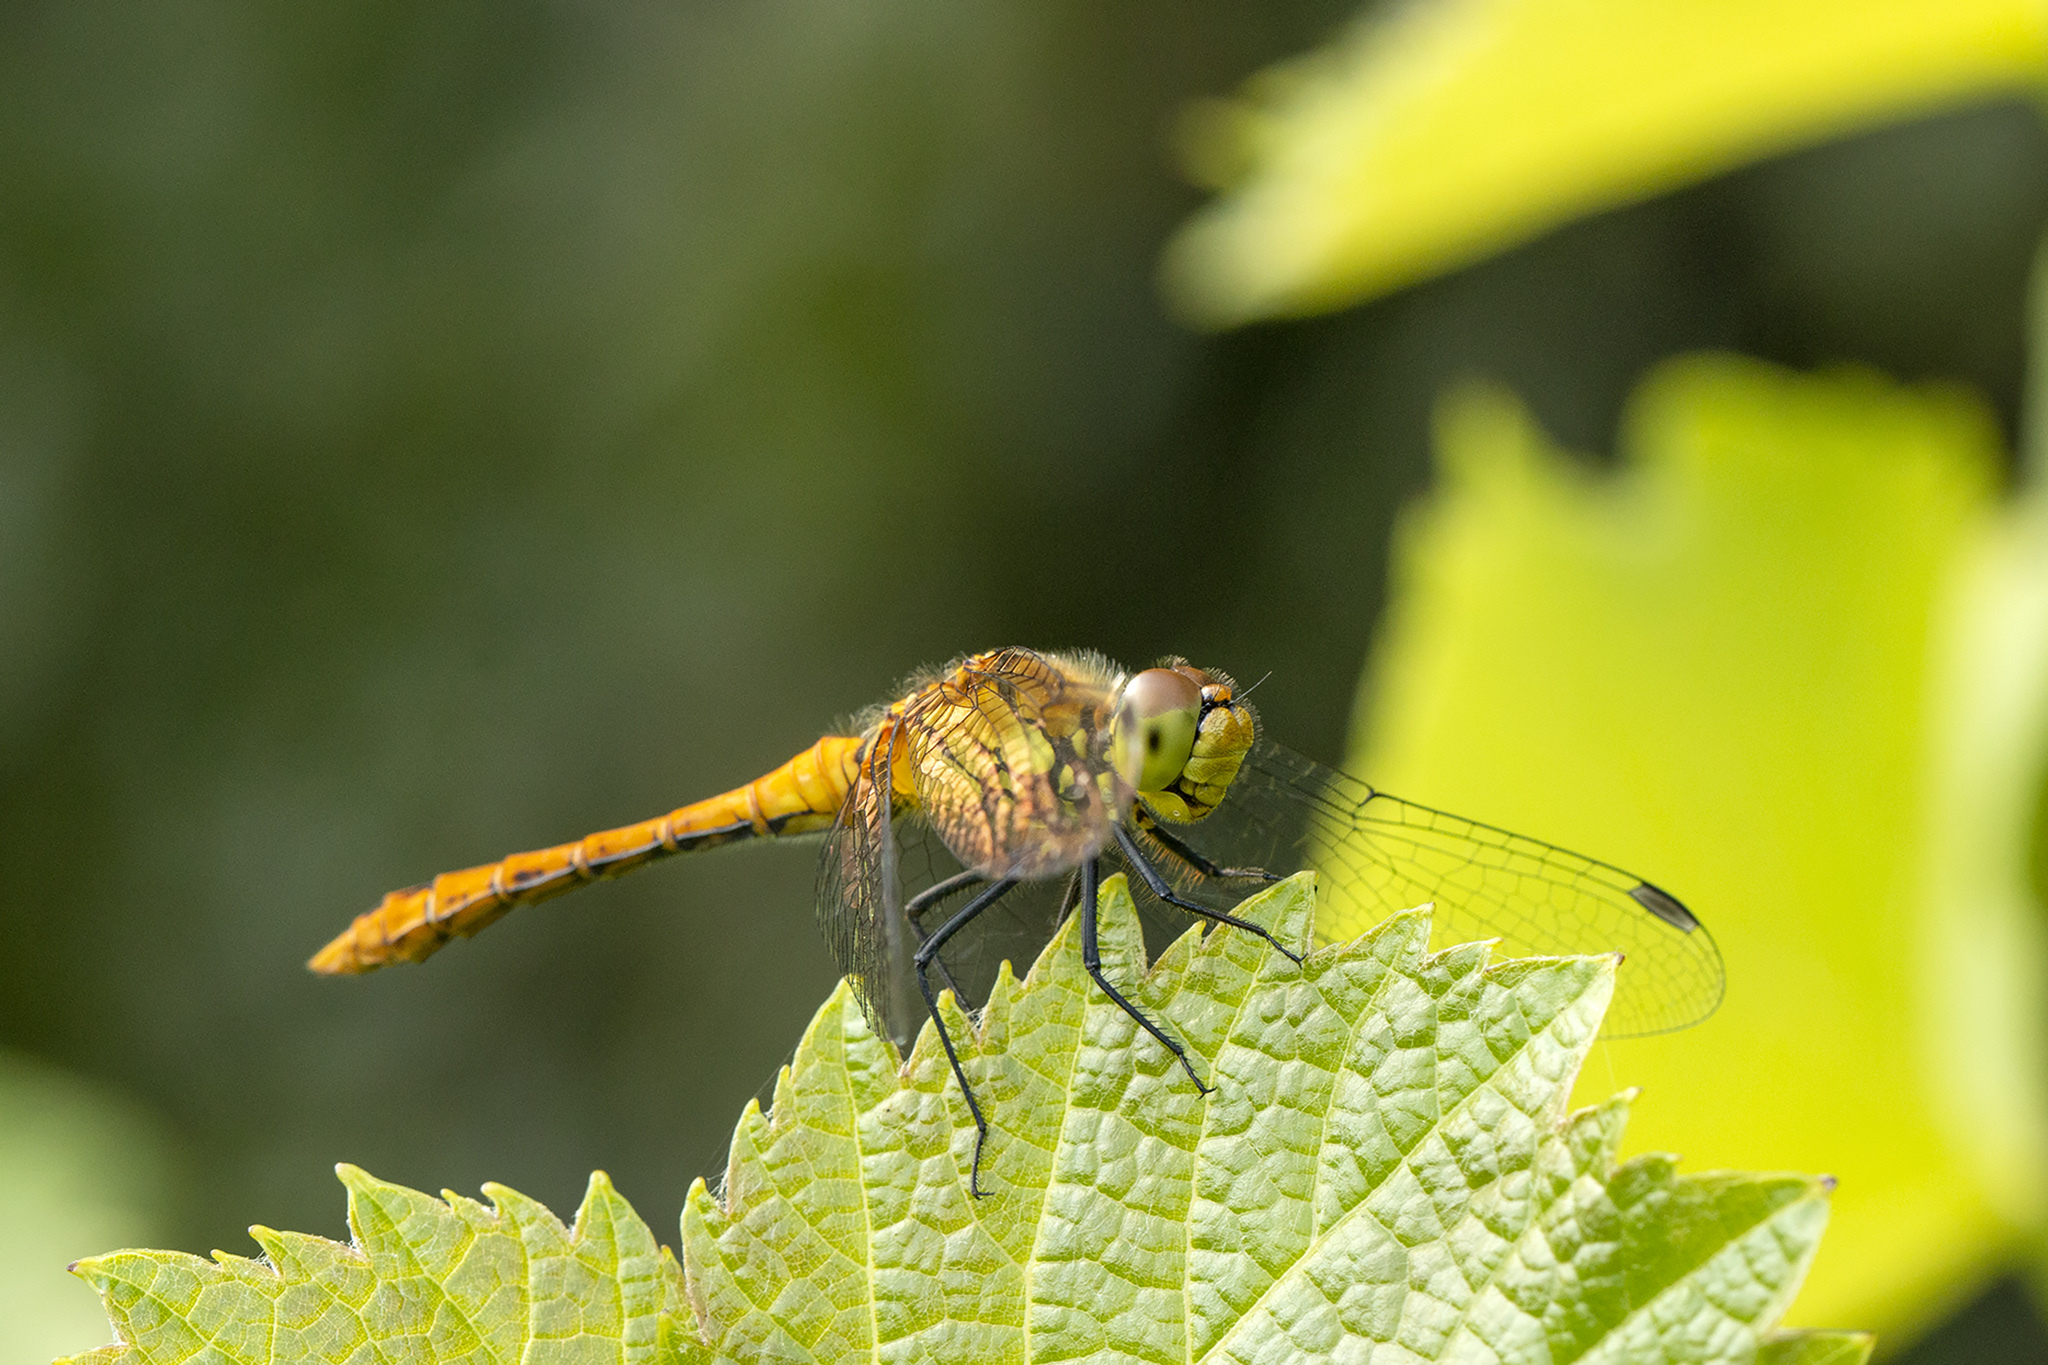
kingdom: Animalia
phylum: Arthropoda
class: Insecta
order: Odonata
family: Libellulidae
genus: Sympetrum
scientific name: Sympetrum sanguineum
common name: Ruddy darter
